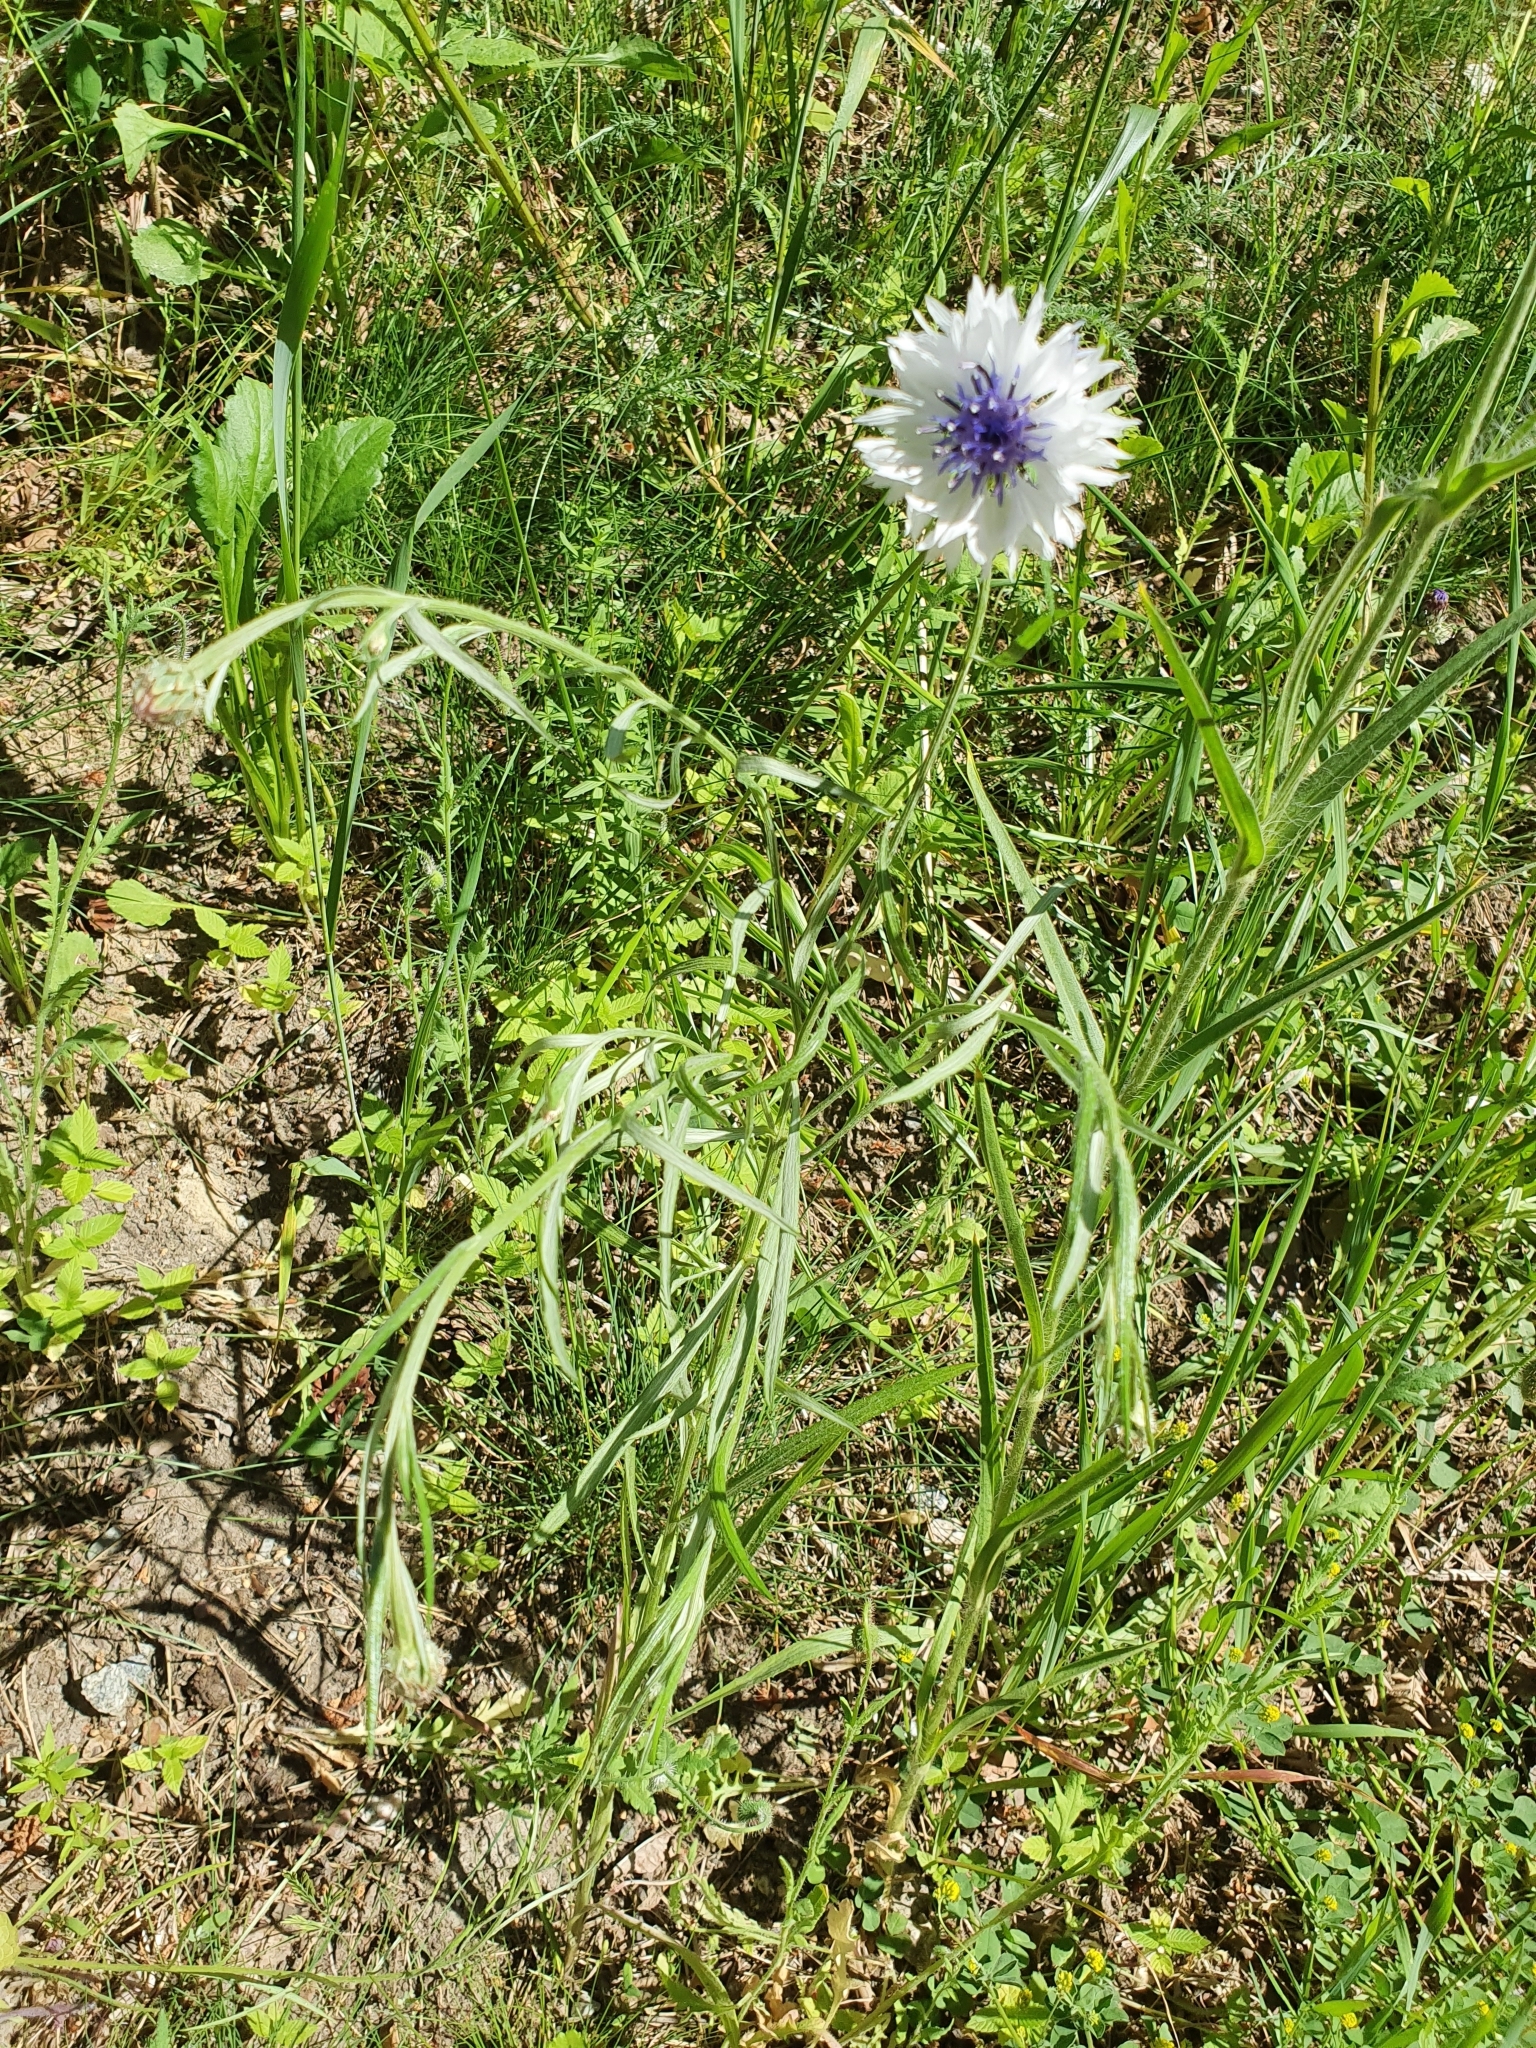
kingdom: Plantae
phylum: Tracheophyta
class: Magnoliopsida
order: Asterales
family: Asteraceae
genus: Centaurea
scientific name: Centaurea cyanus
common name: Cornflower
